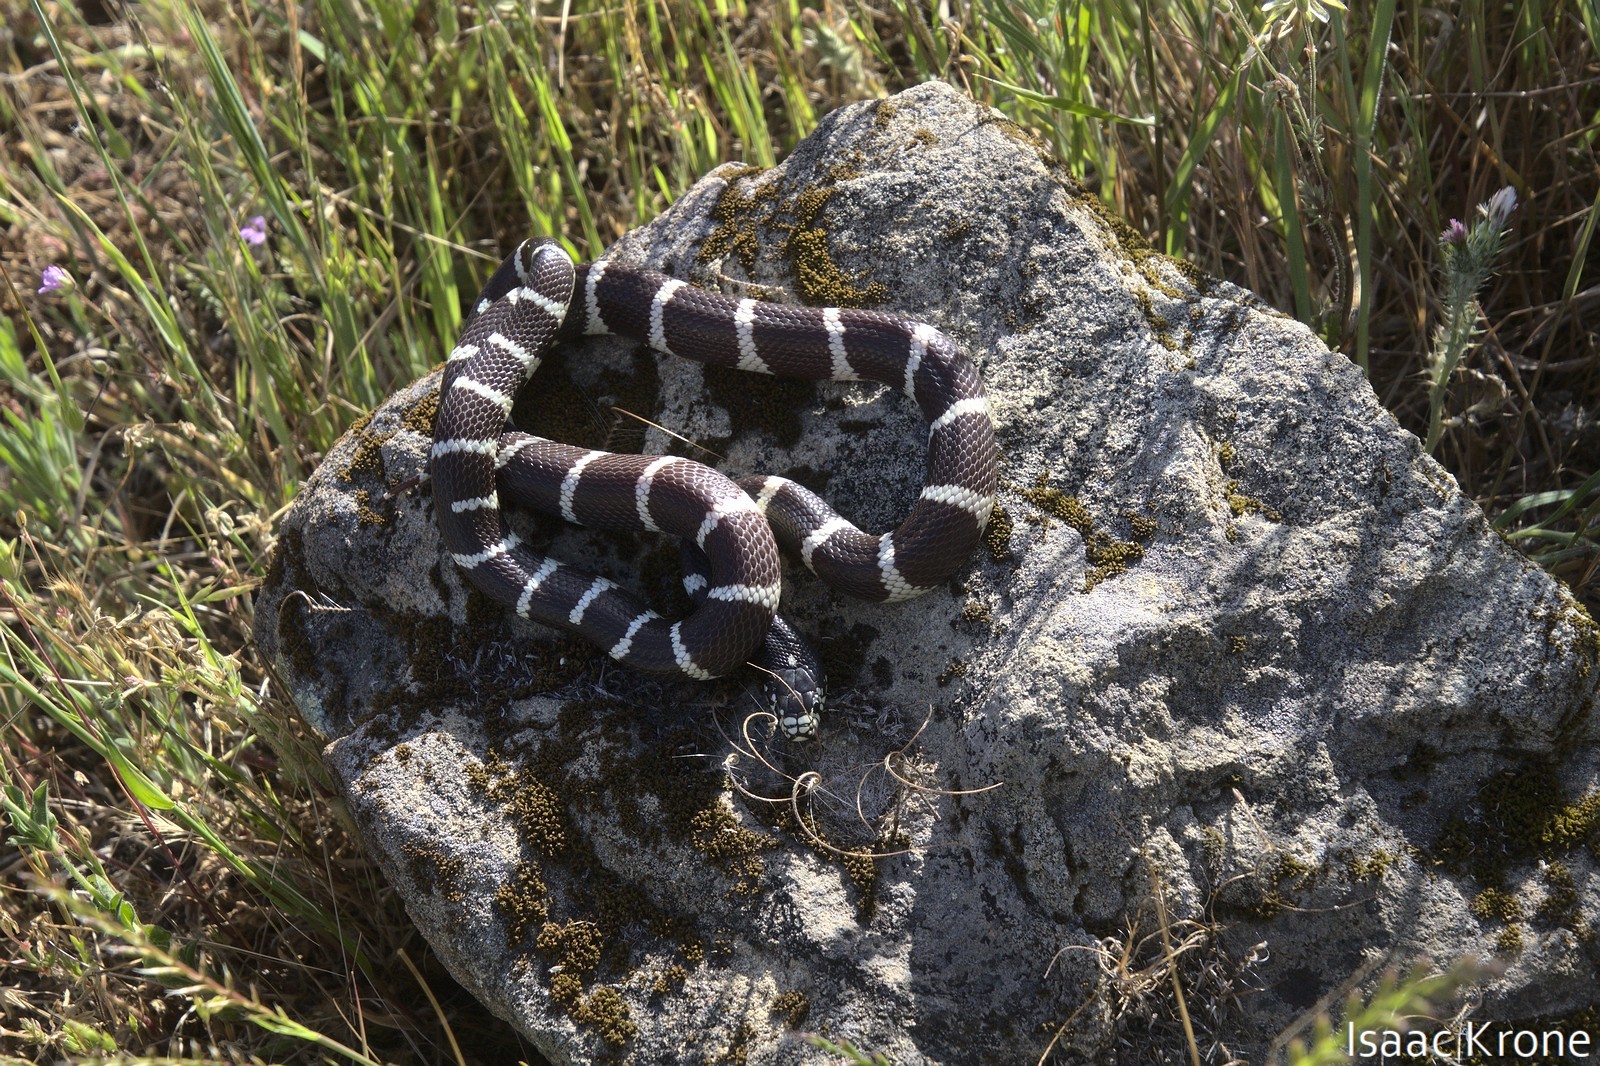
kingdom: Animalia
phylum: Chordata
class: Squamata
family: Colubridae
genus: Lampropeltis
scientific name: Lampropeltis californiae
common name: California kingsnake
